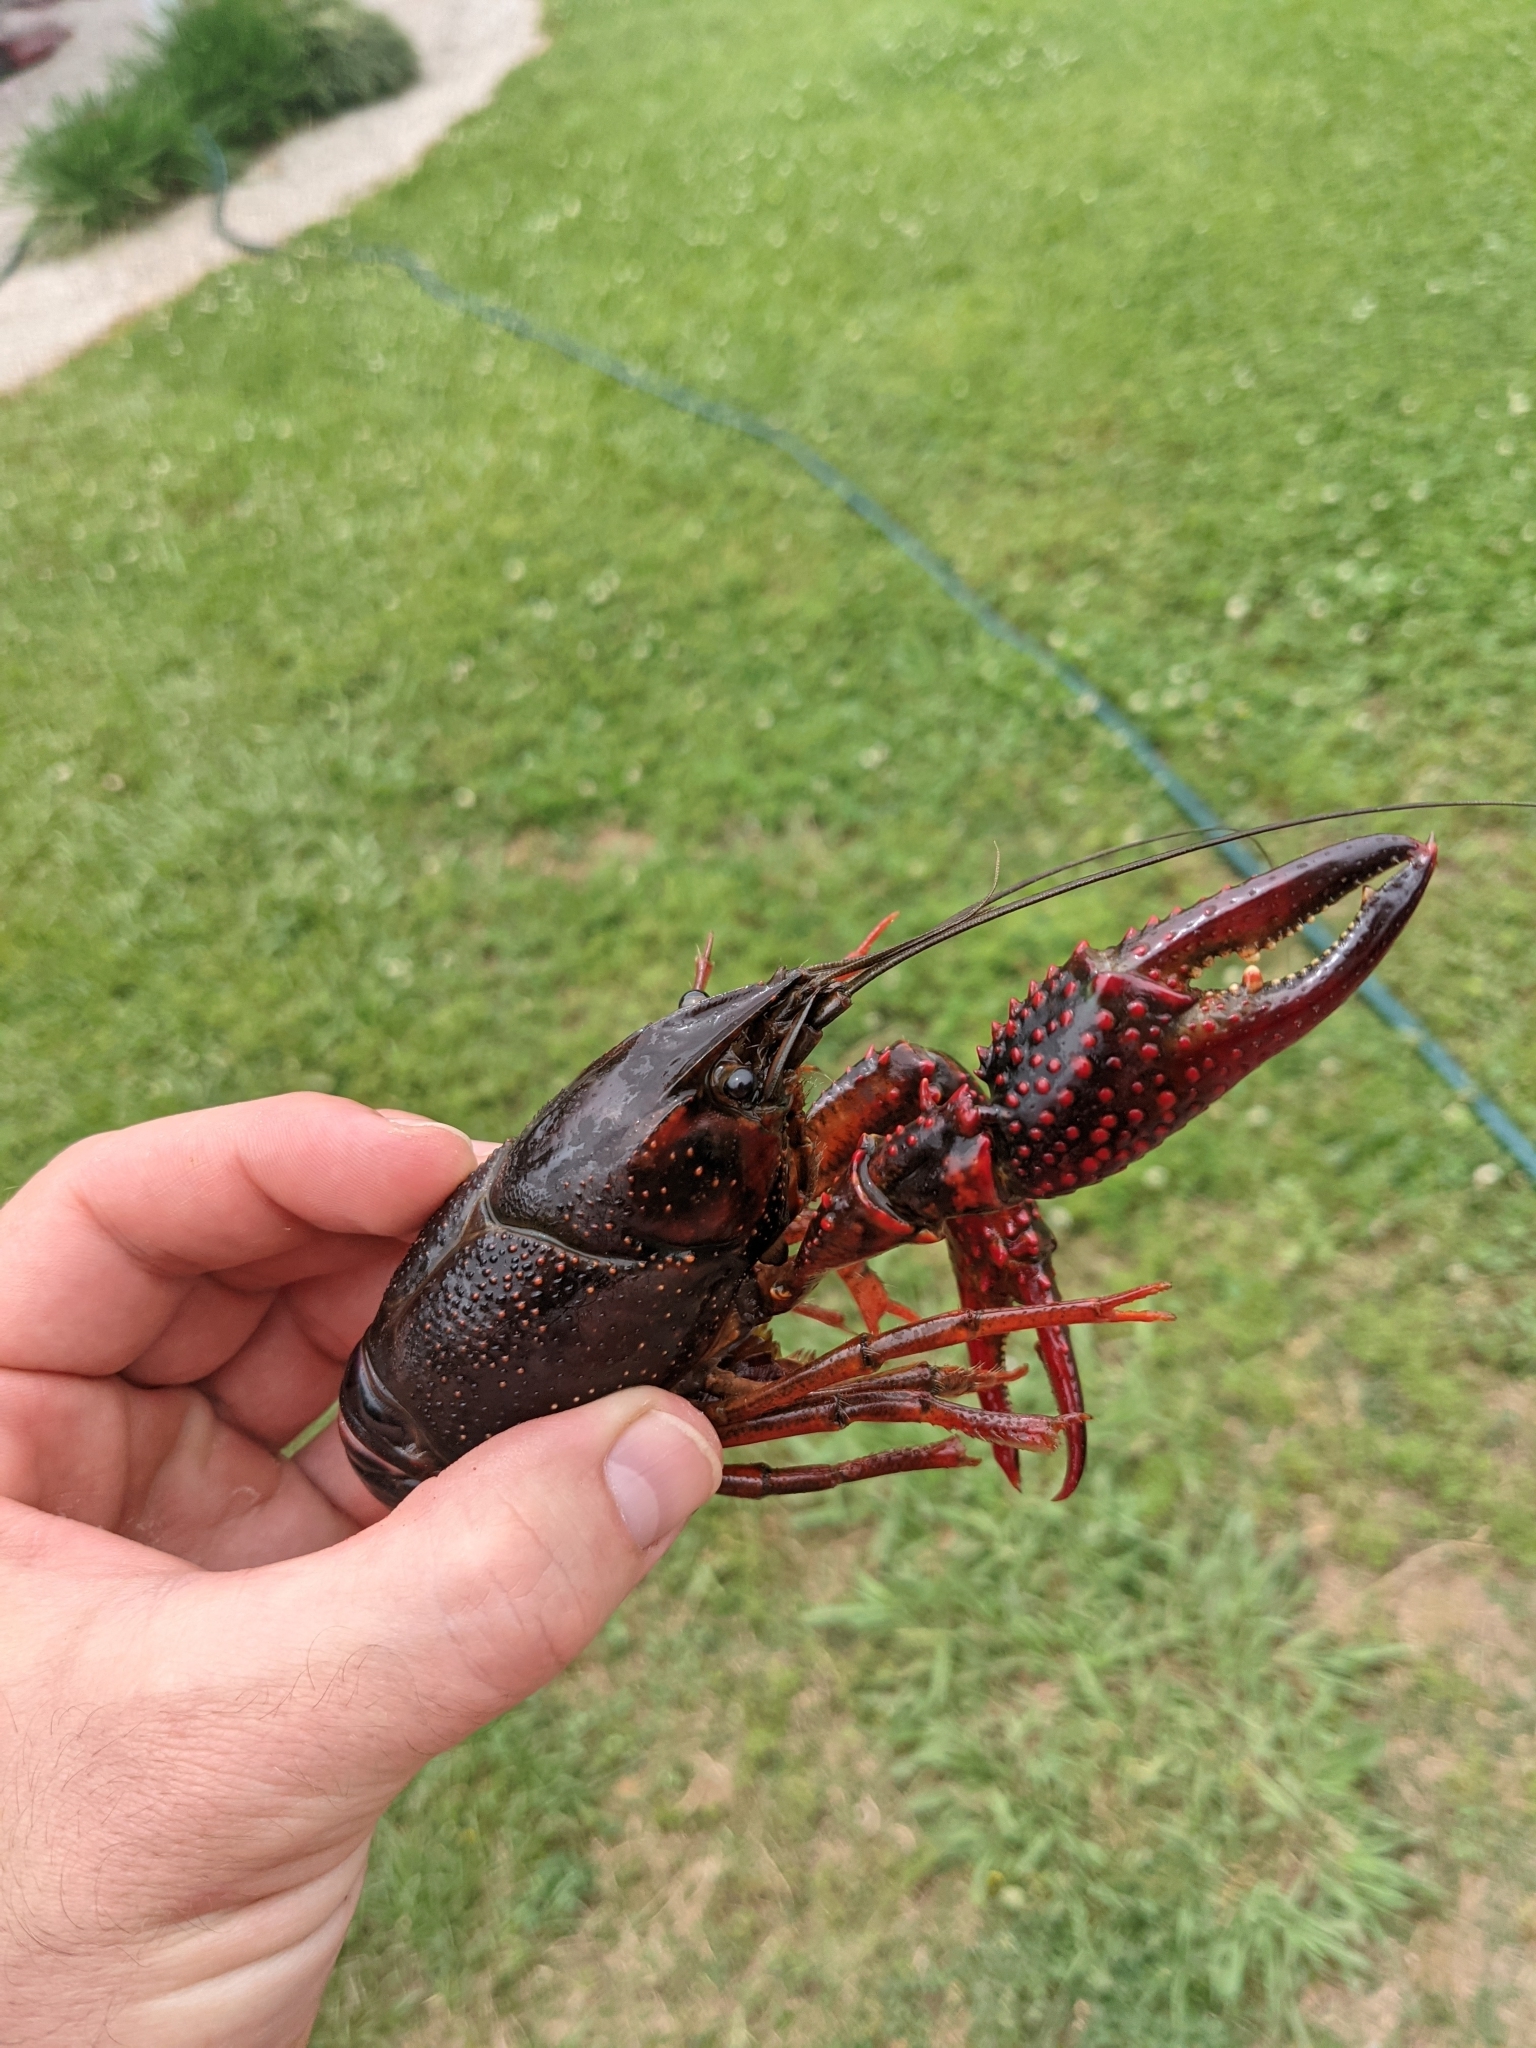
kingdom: Animalia
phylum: Arthropoda
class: Malacostraca
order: Decapoda
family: Cambaridae
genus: Procambarus
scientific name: Procambarus clarkii
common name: Red swamp crayfish
